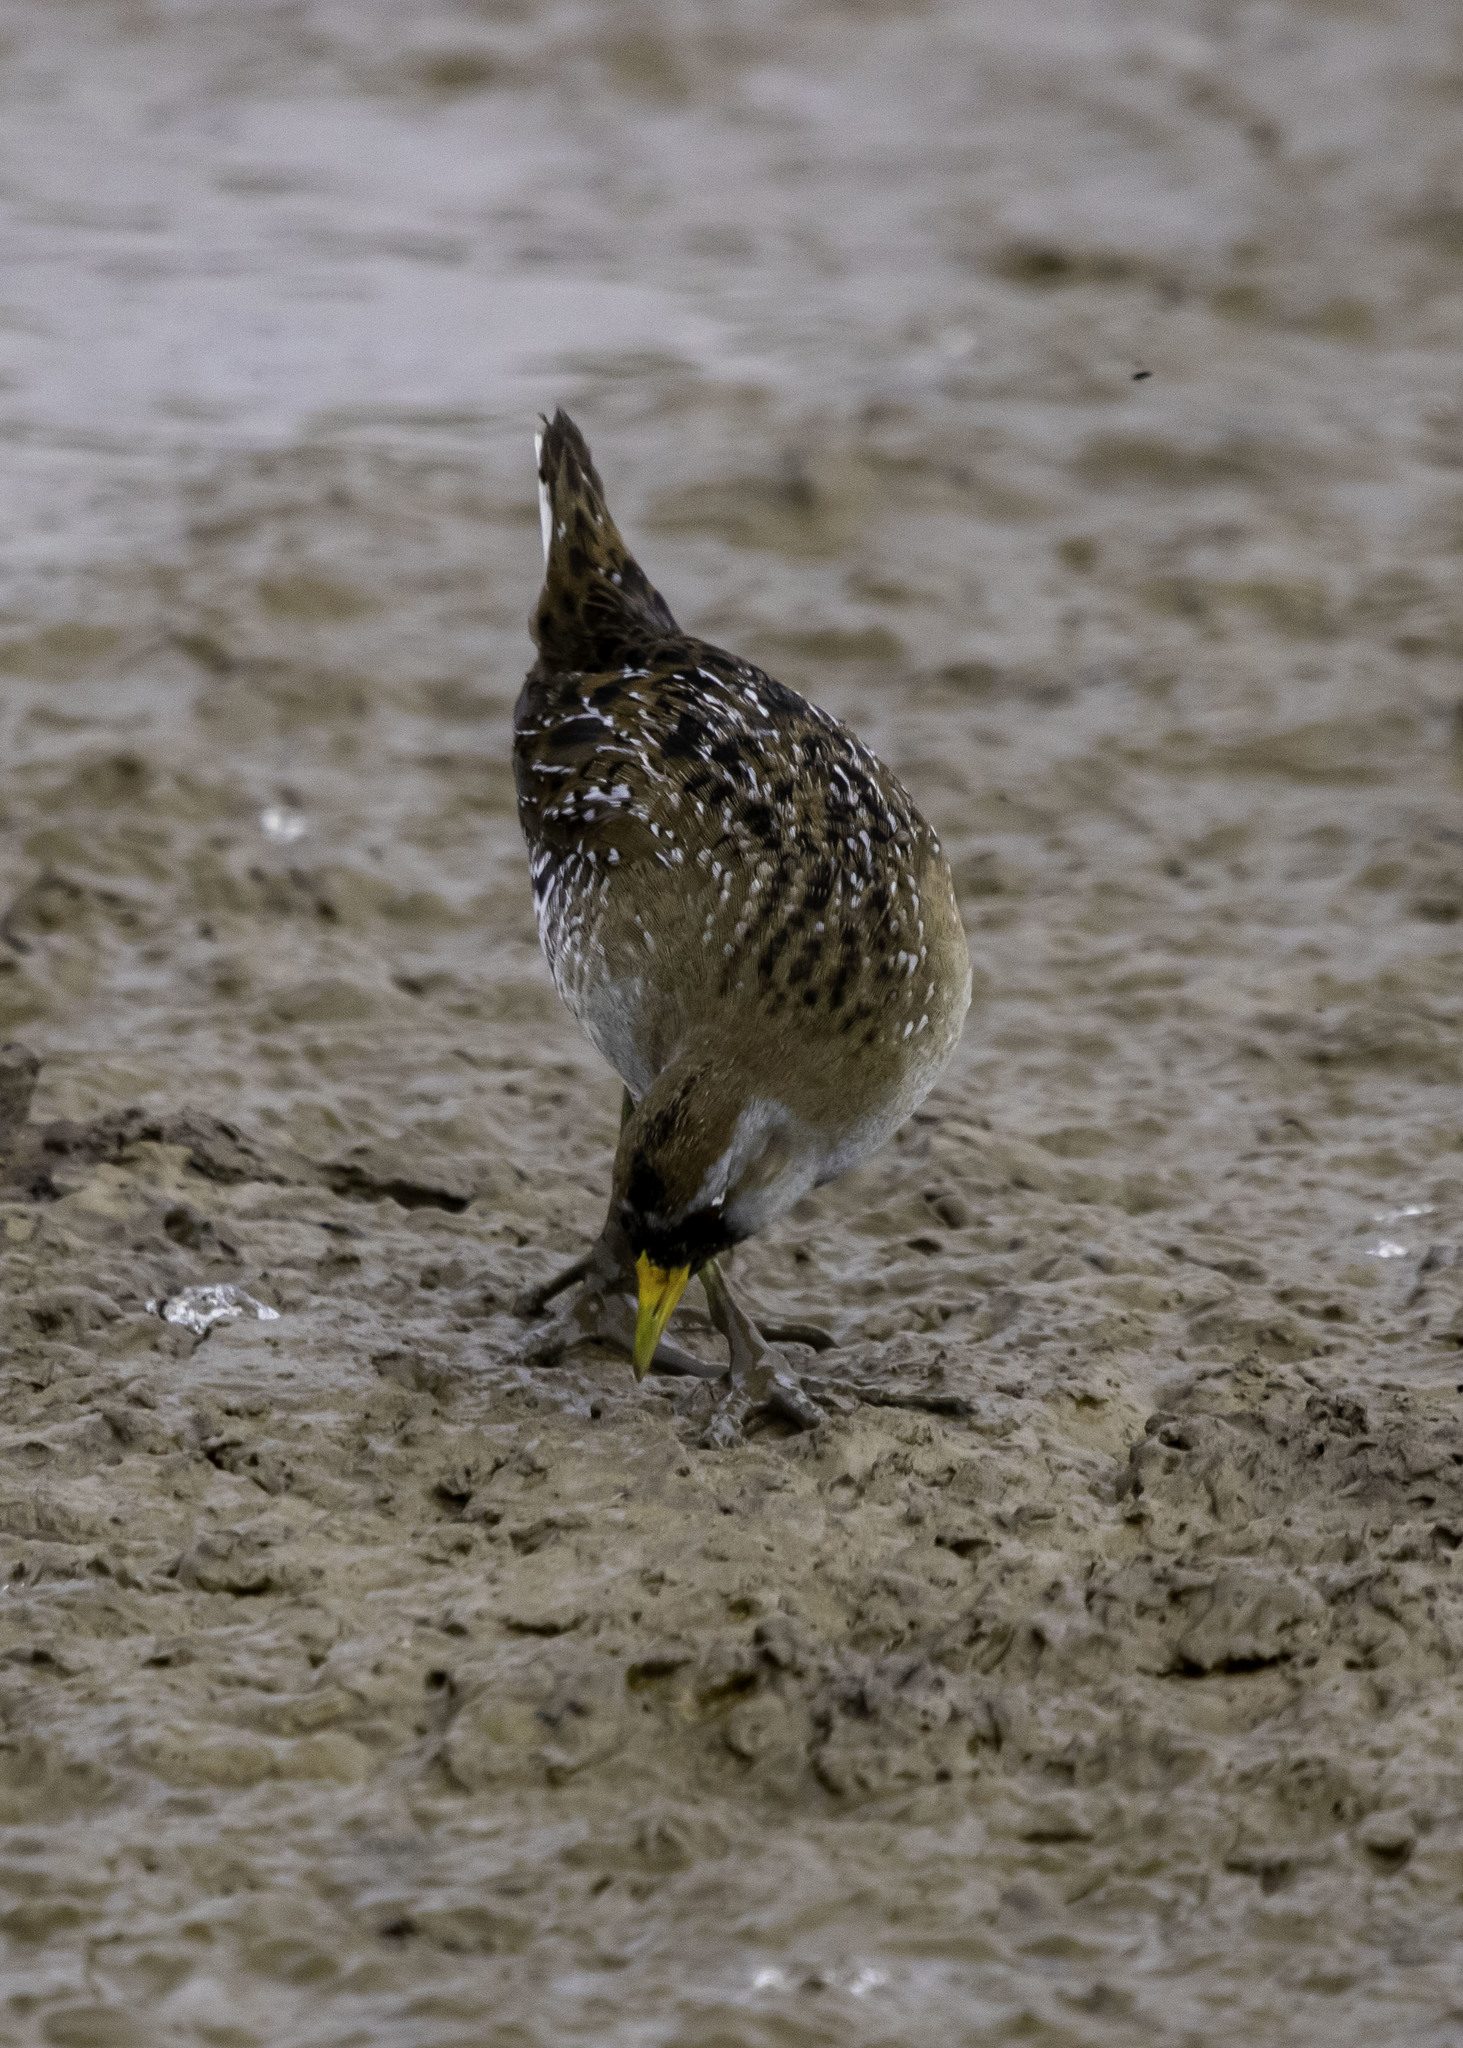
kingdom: Animalia
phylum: Chordata
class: Aves
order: Gruiformes
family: Rallidae
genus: Porzana
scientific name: Porzana carolina
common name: Sora
